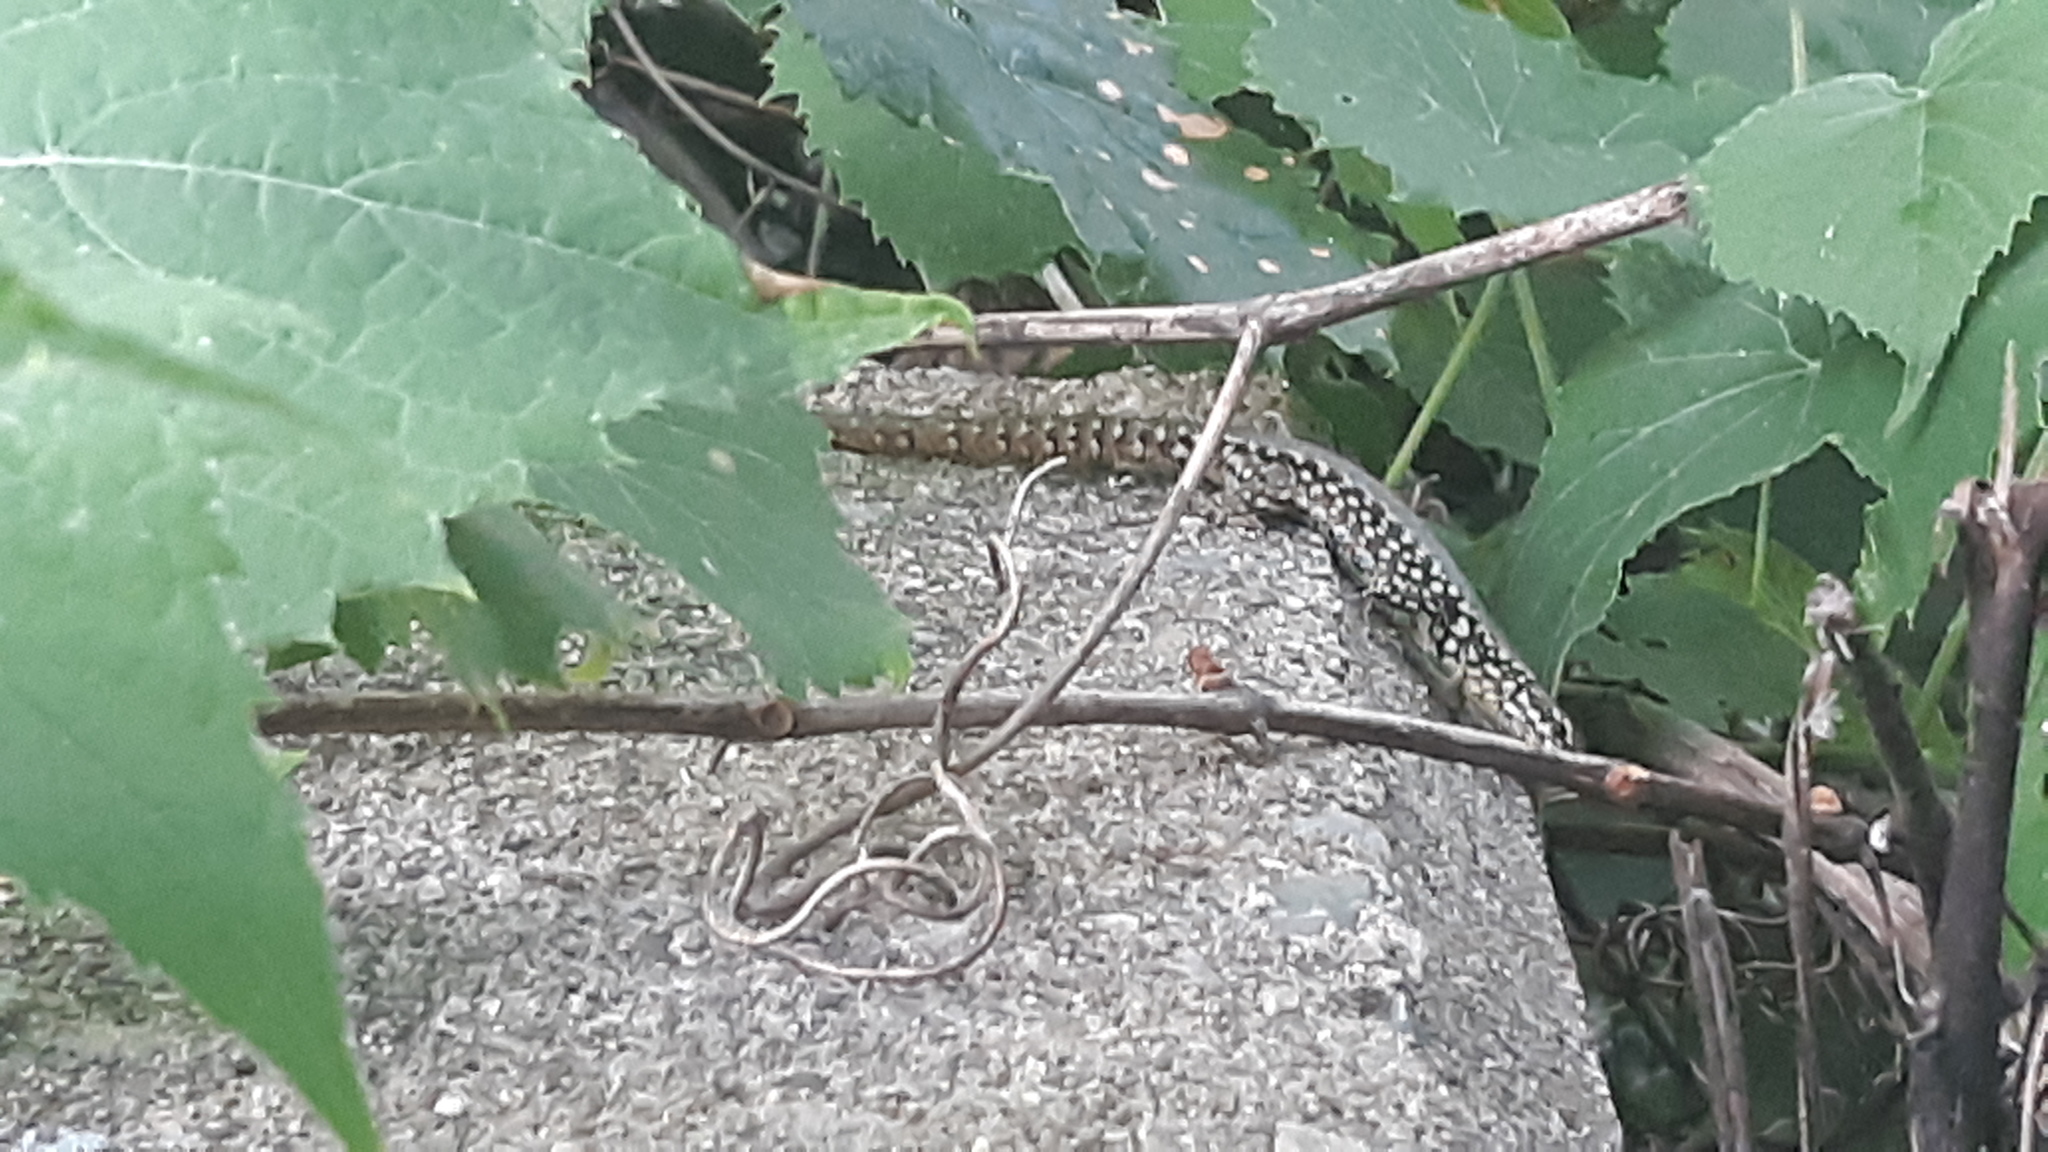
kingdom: Animalia
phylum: Chordata
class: Squamata
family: Lacertidae
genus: Podarcis
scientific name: Podarcis muralis
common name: Common wall lizard
